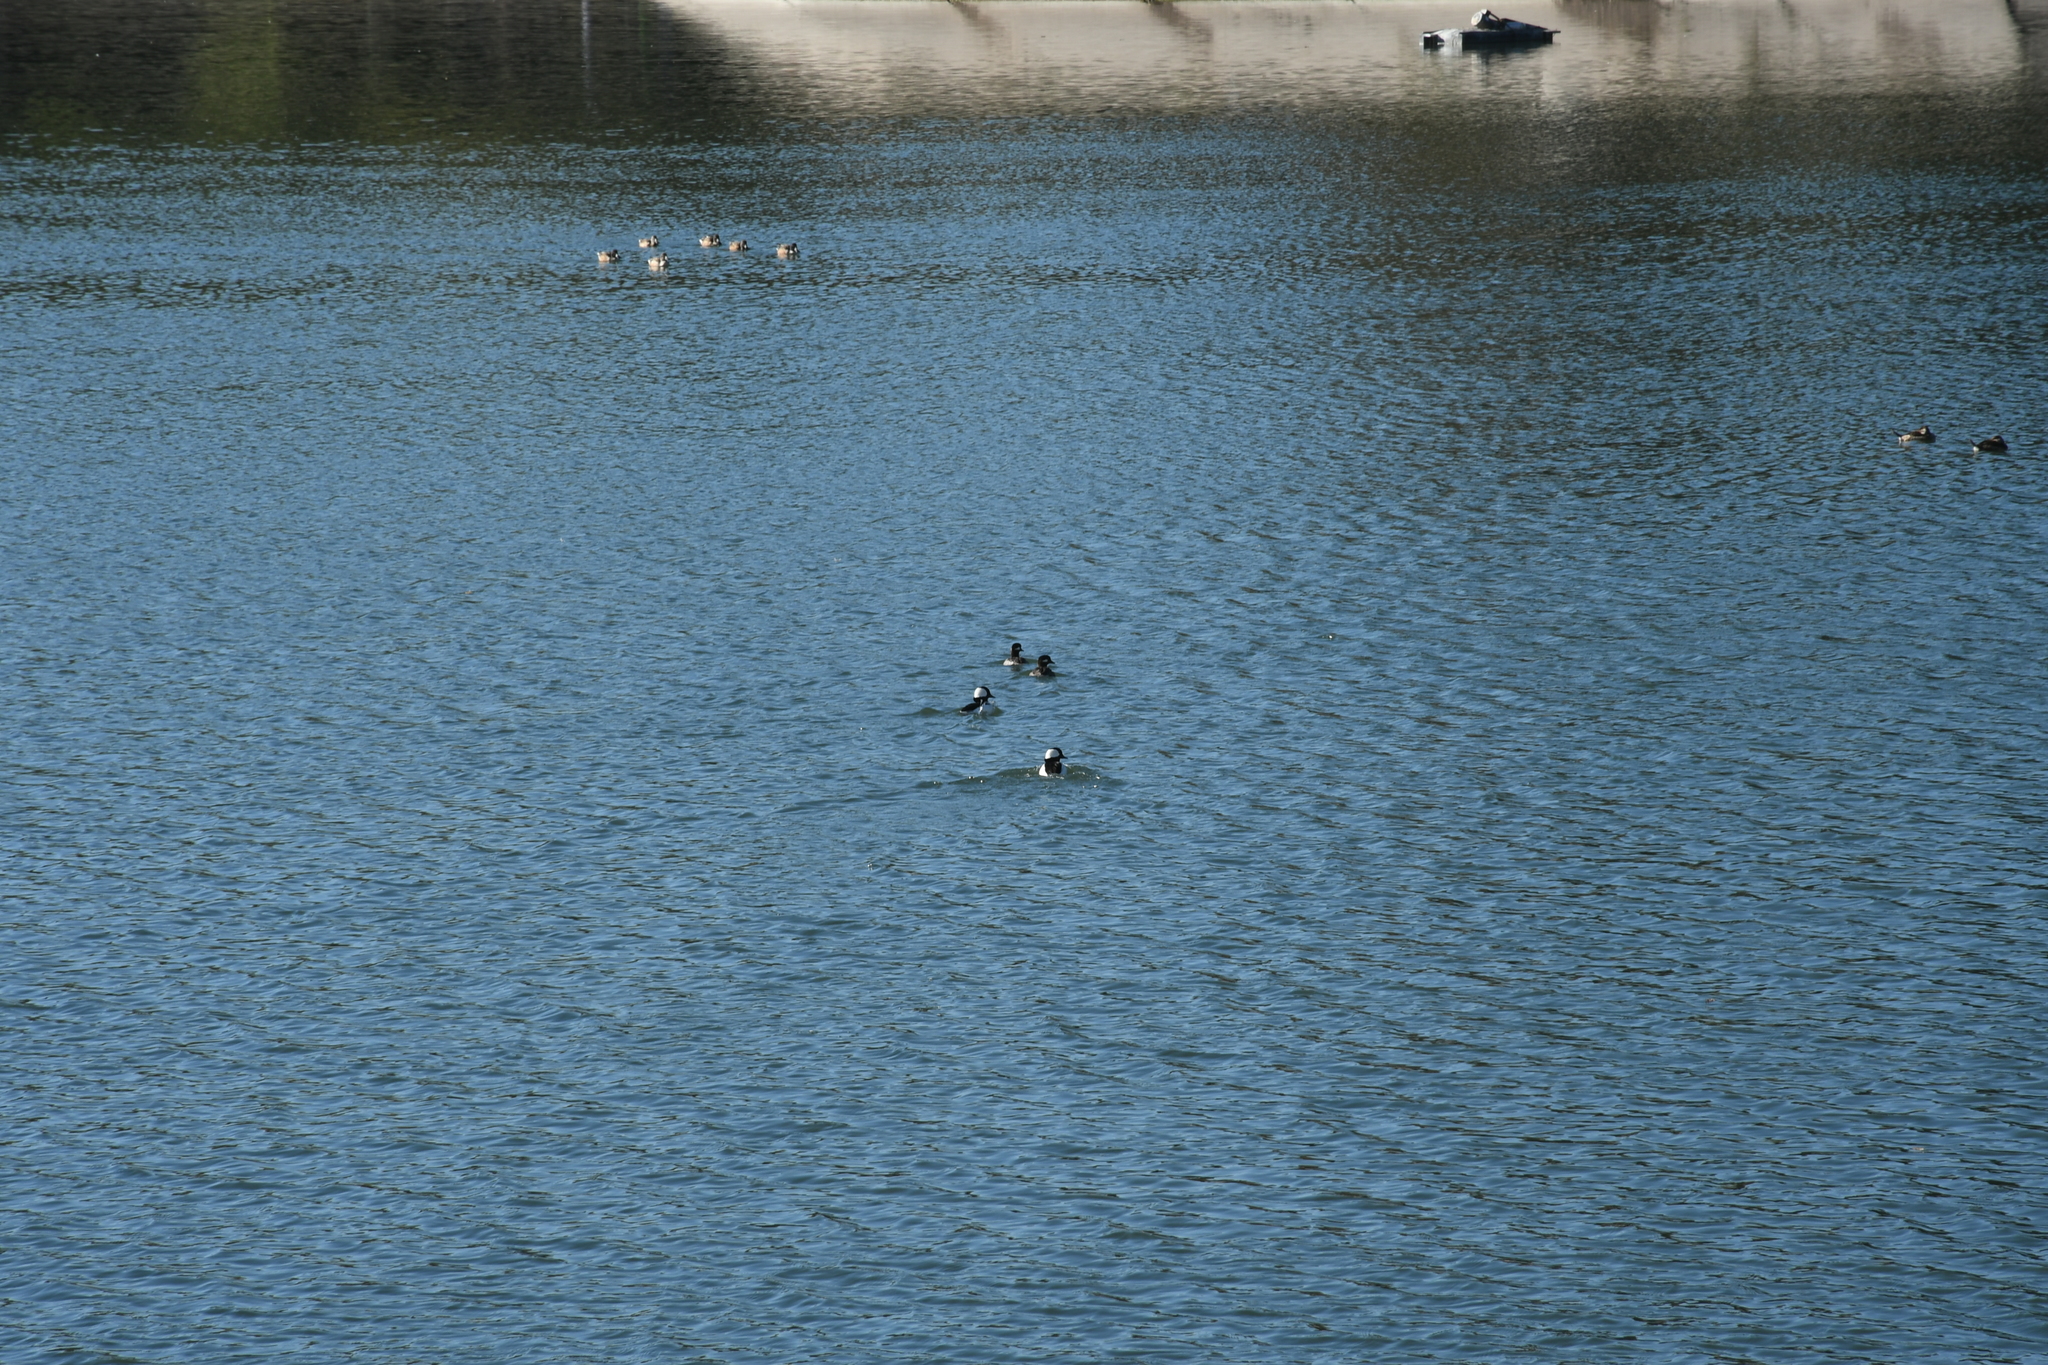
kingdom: Animalia
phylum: Chordata
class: Aves
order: Anseriformes
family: Anatidae
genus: Bucephala
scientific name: Bucephala albeola
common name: Bufflehead
